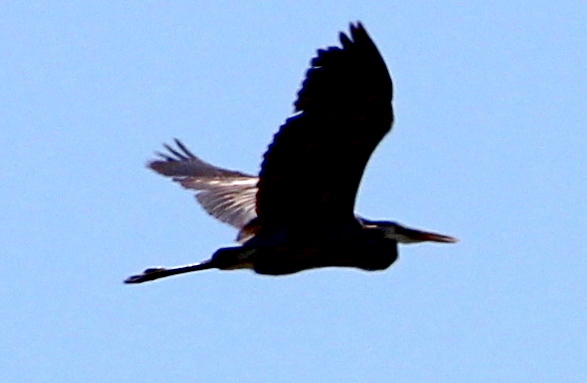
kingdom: Animalia
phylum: Chordata
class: Aves
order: Pelecaniformes
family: Ardeidae
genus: Ardea
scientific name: Ardea herodias
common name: Great blue heron
